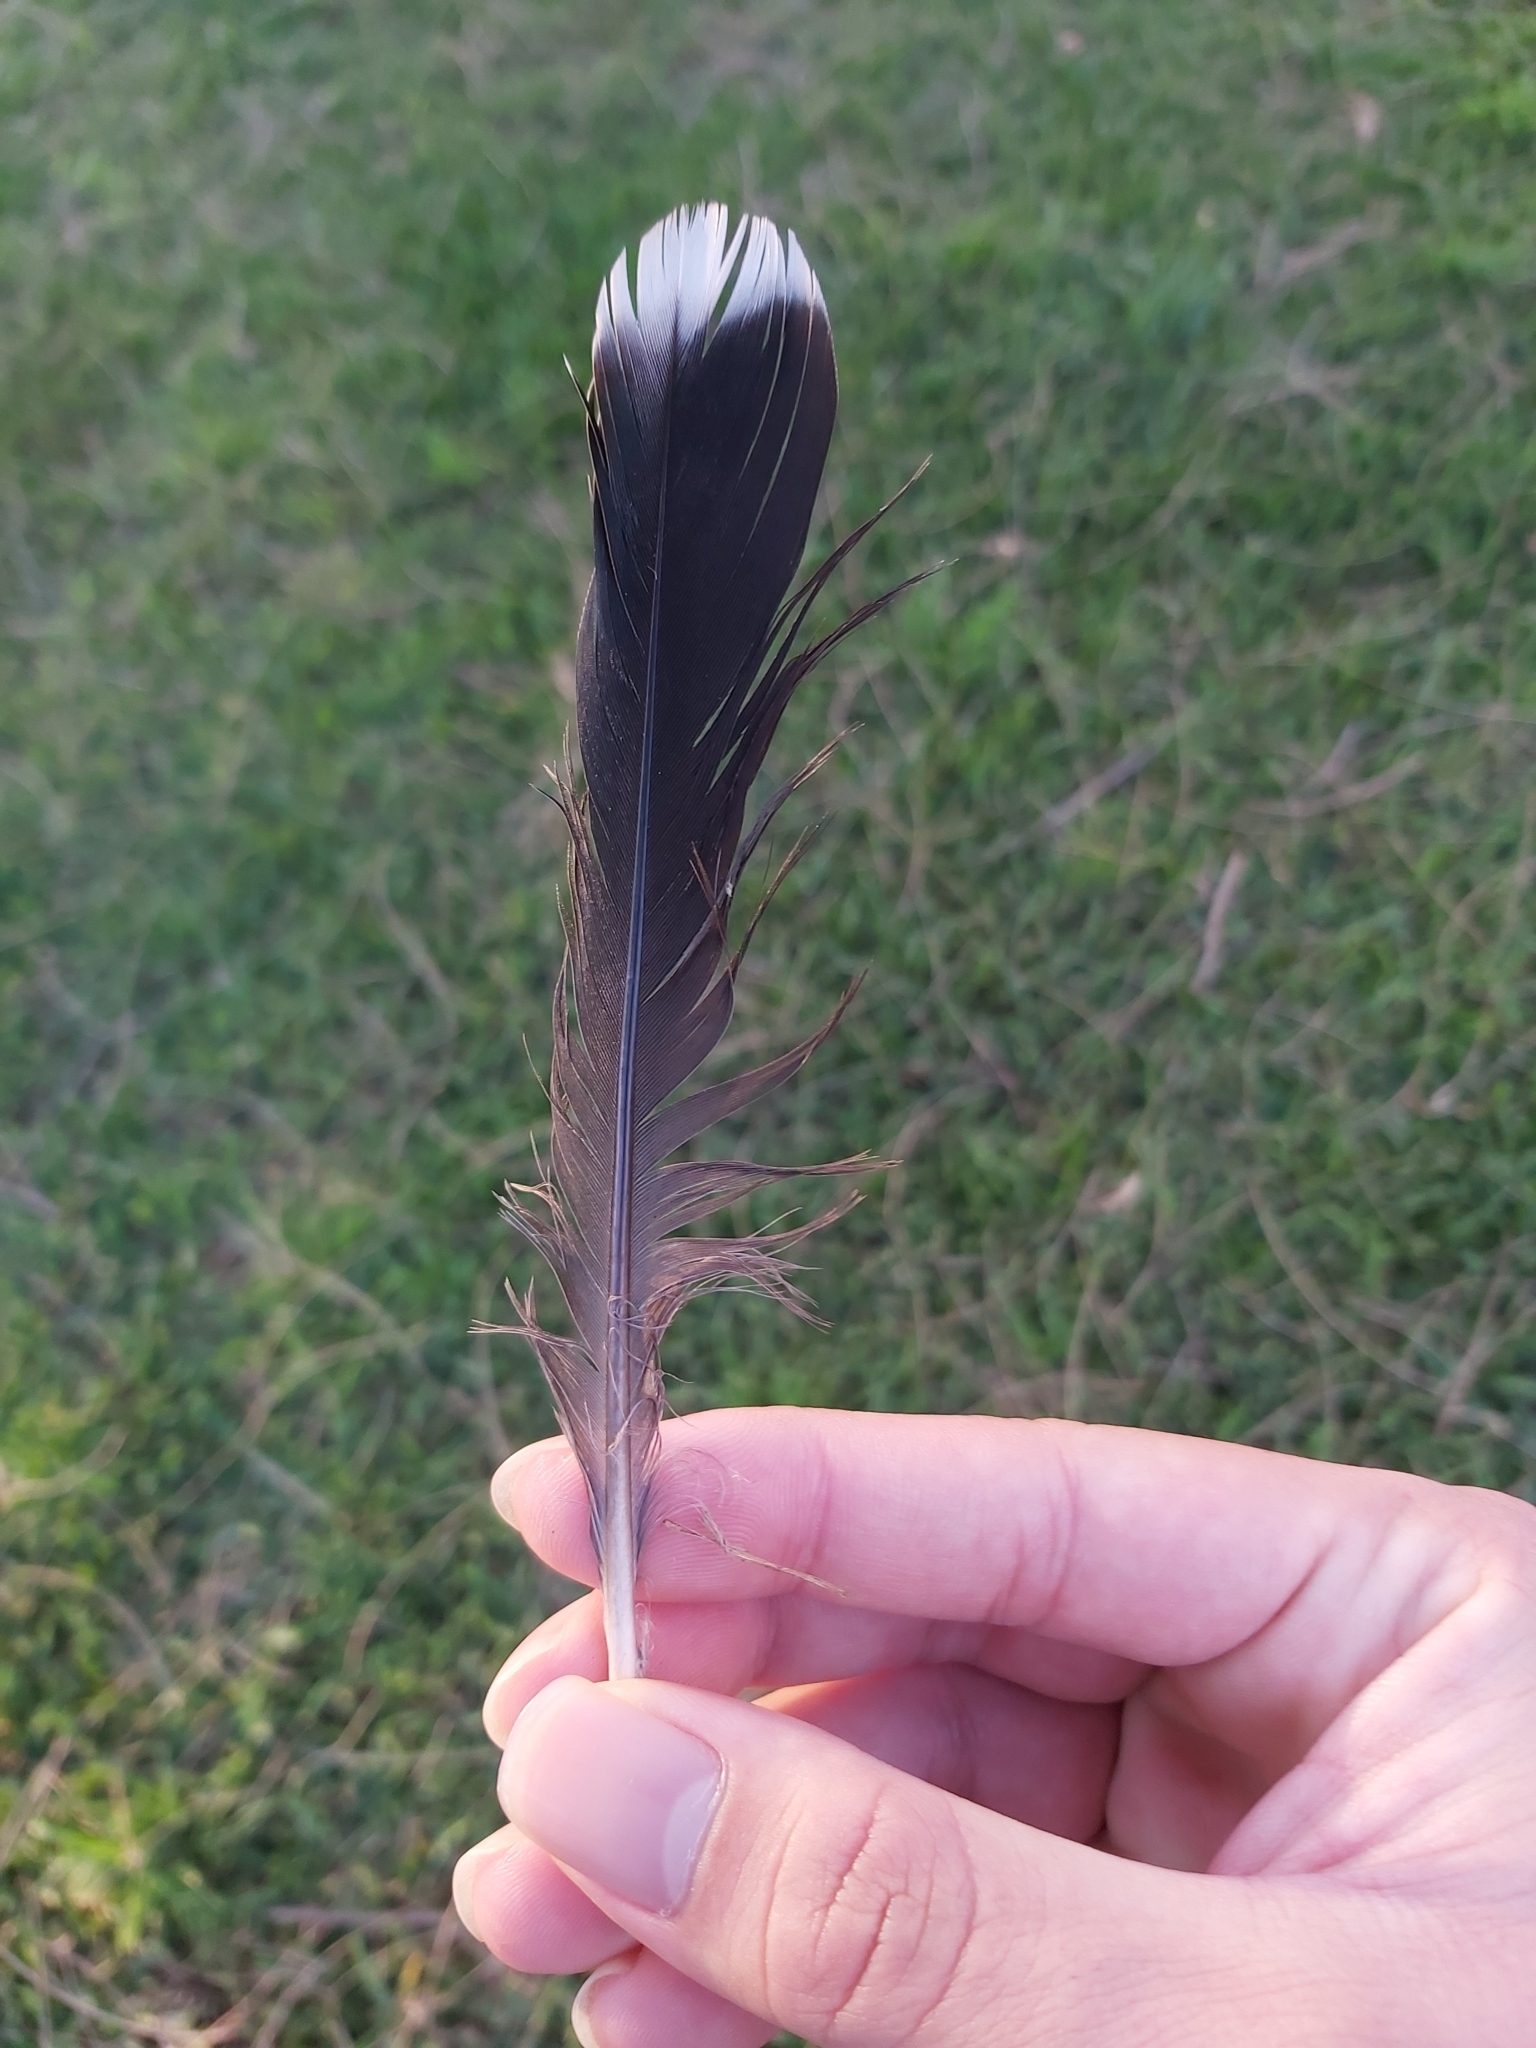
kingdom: Animalia
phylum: Chordata
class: Aves
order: Columbiformes
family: Columbidae
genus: Ocyphaps
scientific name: Ocyphaps lophotes
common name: Crested pigeon
